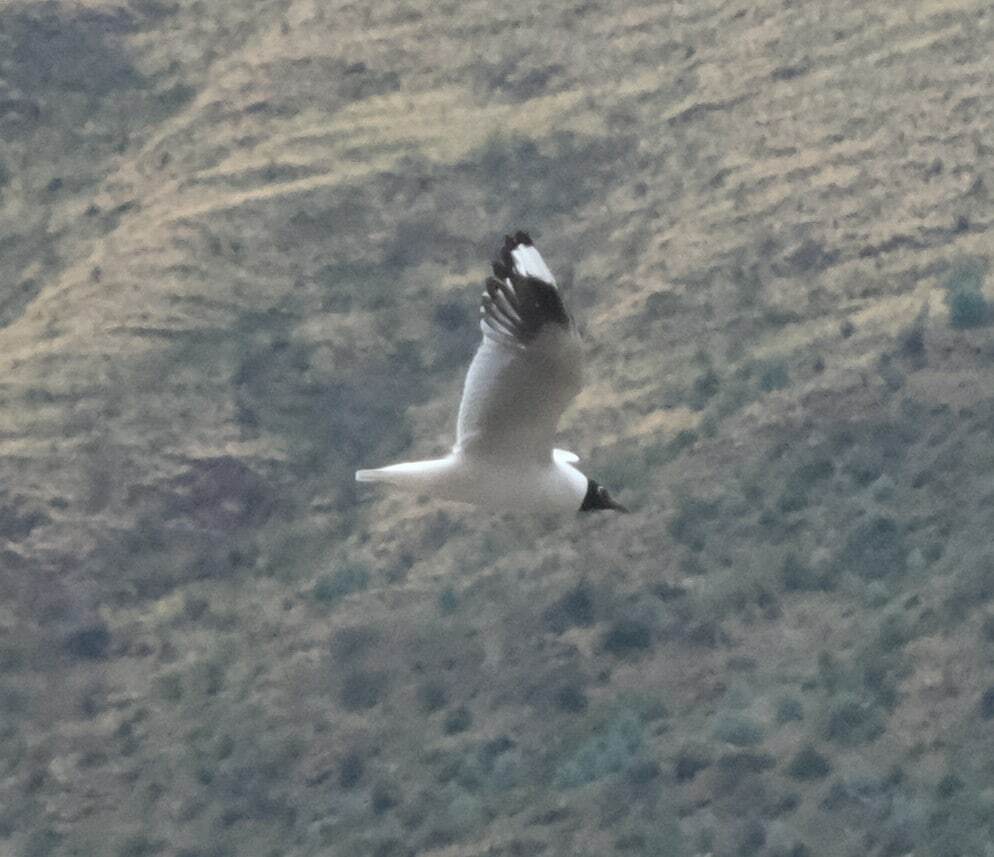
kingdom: Animalia
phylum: Chordata
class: Aves
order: Charadriiformes
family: Laridae
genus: Chroicocephalus
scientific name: Chroicocephalus serranus
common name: Andean gull
